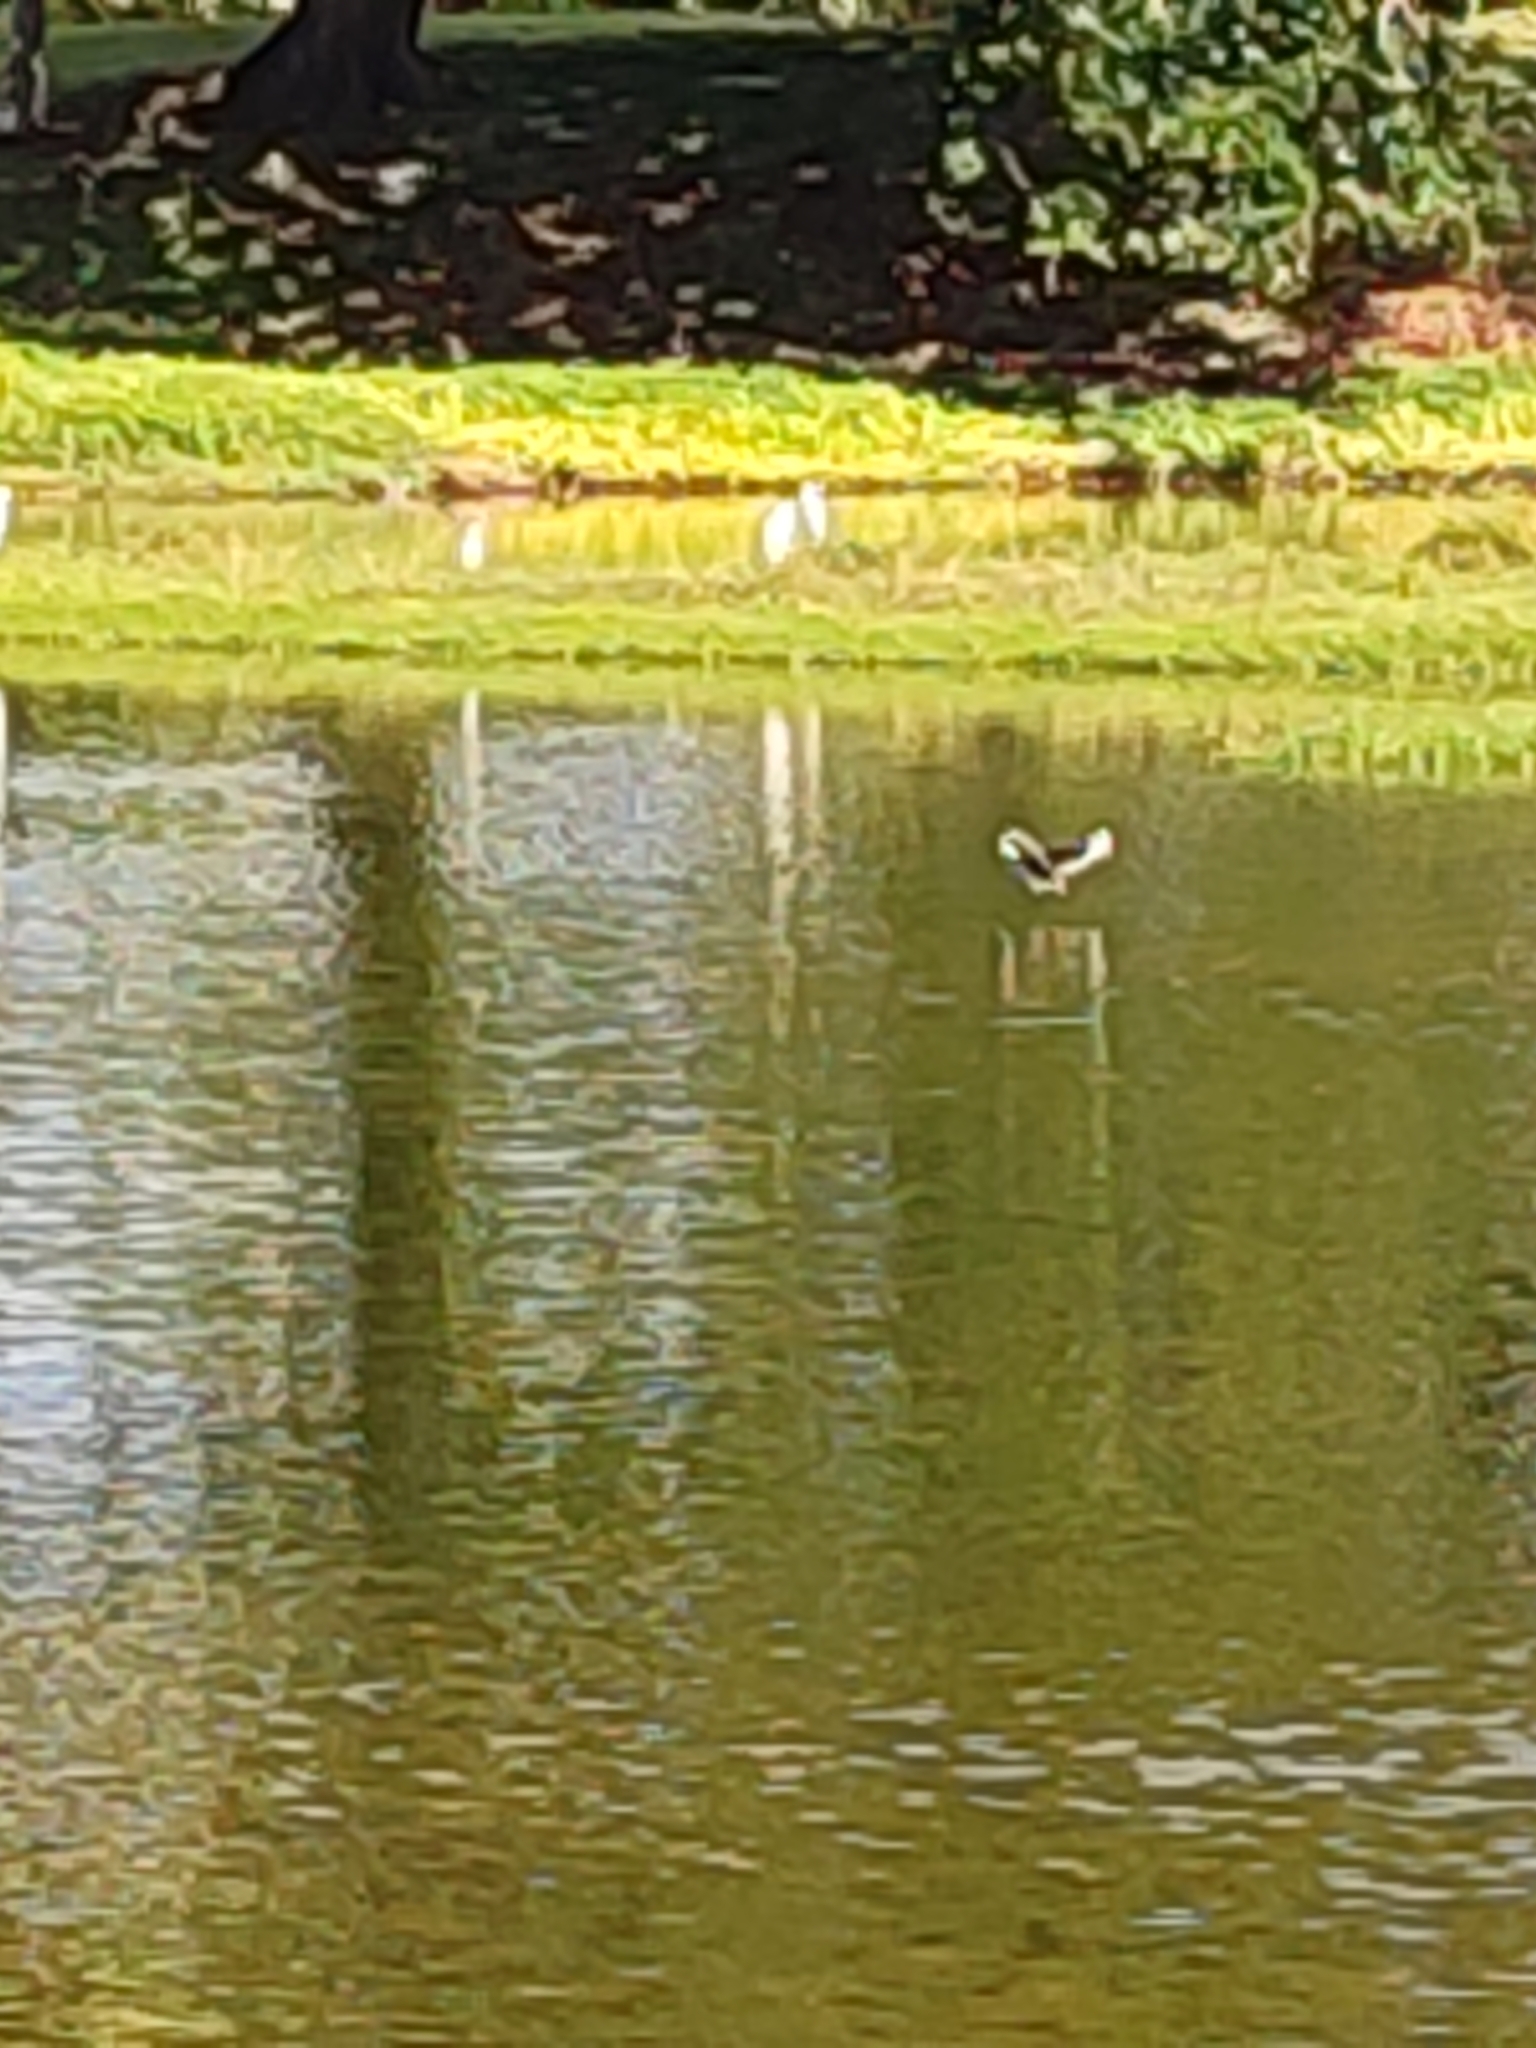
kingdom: Animalia
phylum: Chordata
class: Aves
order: Gruiformes
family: Rallidae
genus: Amaurornis
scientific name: Amaurornis phoenicurus
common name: White-breasted waterhen
